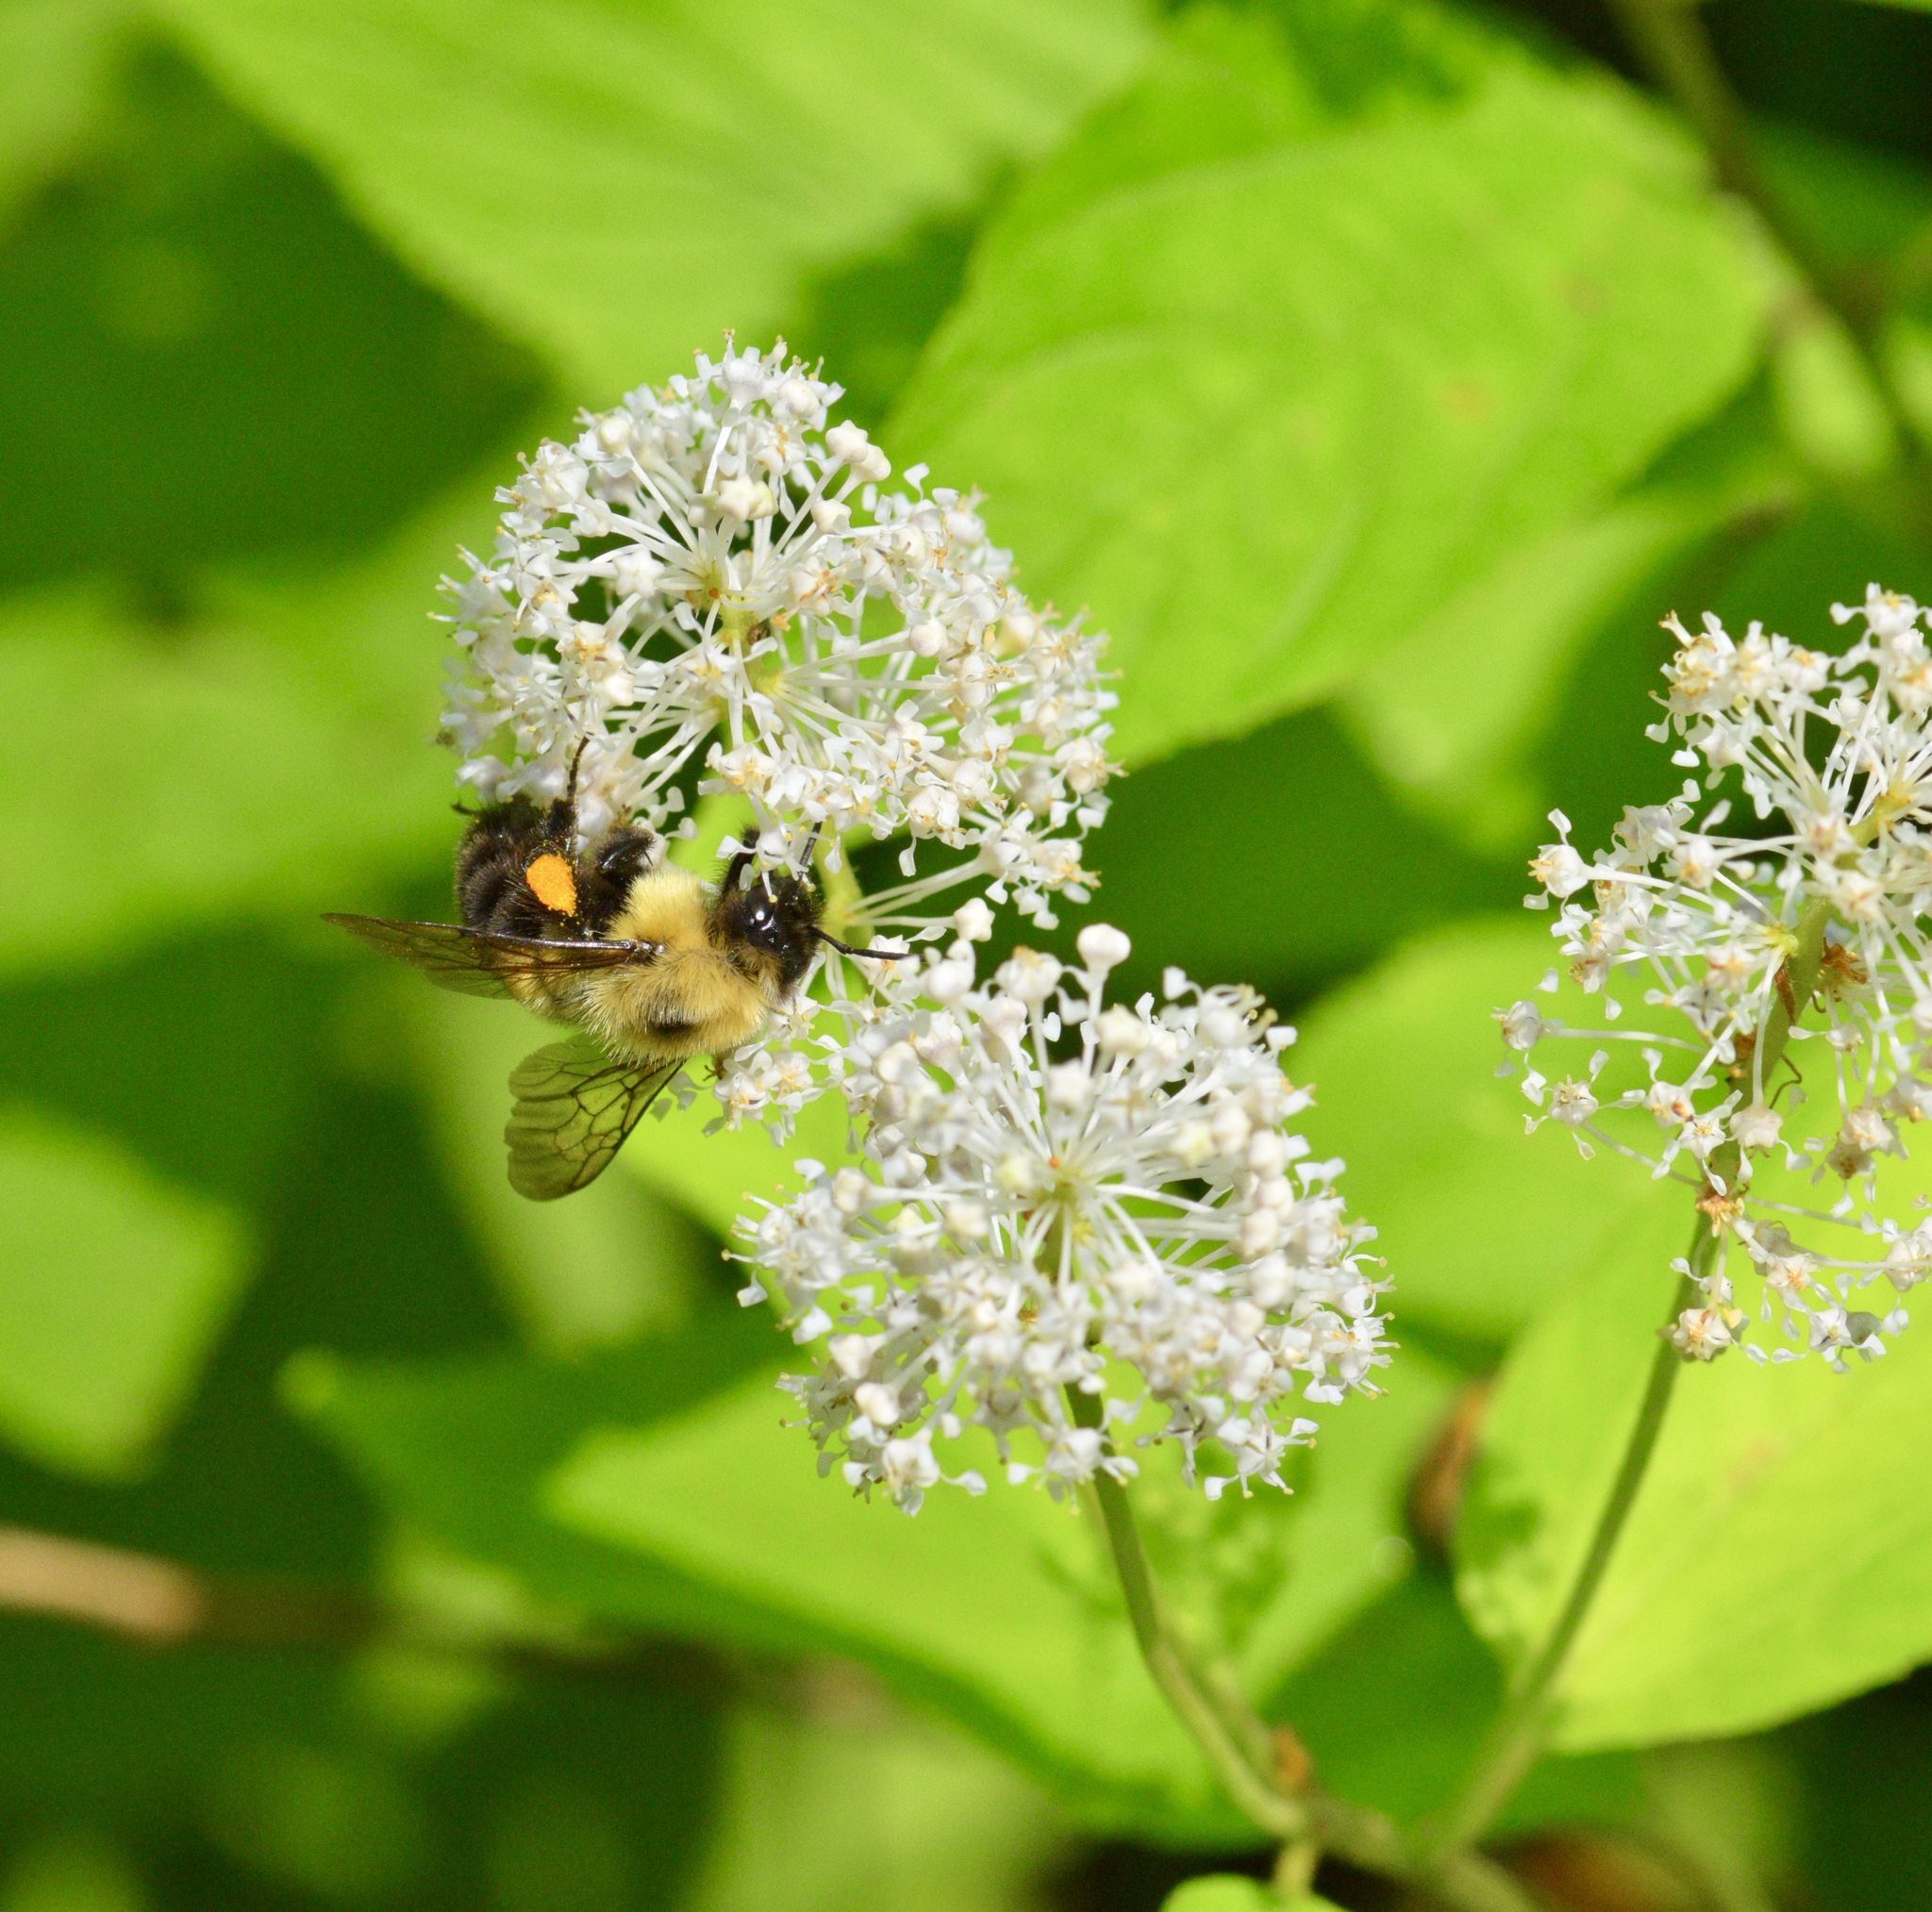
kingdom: Animalia
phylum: Arthropoda
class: Insecta
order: Hymenoptera
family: Apidae
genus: Bombus
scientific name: Bombus bimaculatus
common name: Two-spotted bumble bee
